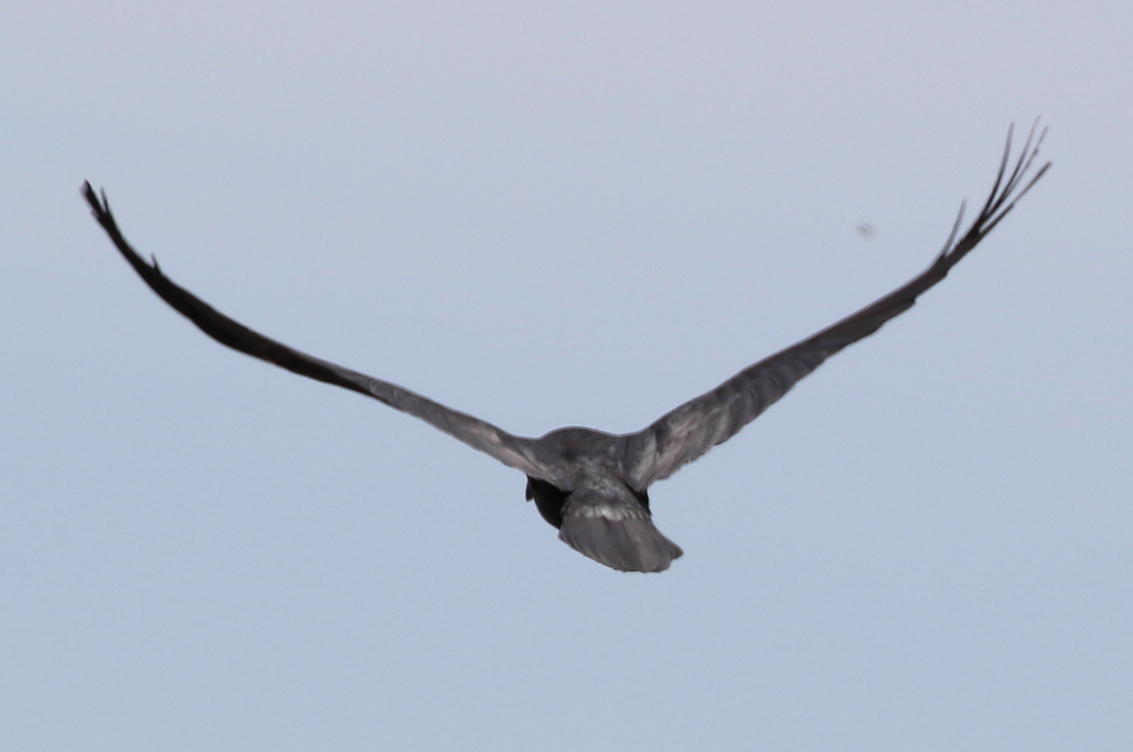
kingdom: Animalia
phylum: Chordata
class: Aves
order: Passeriformes
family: Corvidae
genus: Corvus
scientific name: Corvus
